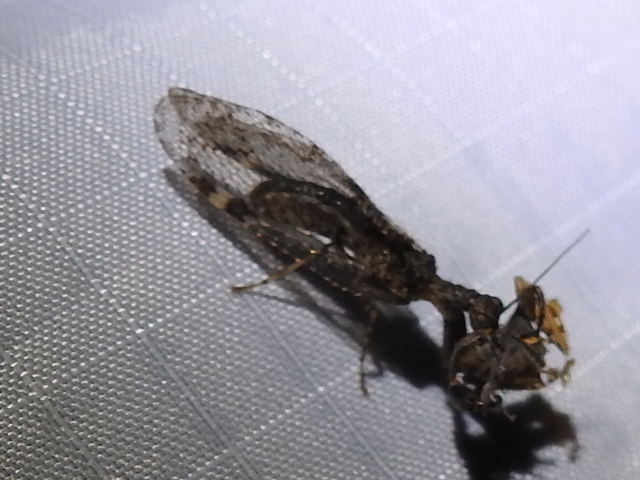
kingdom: Animalia
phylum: Arthropoda
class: Insecta
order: Neuroptera
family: Mantispidae
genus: Plega
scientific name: Plega
